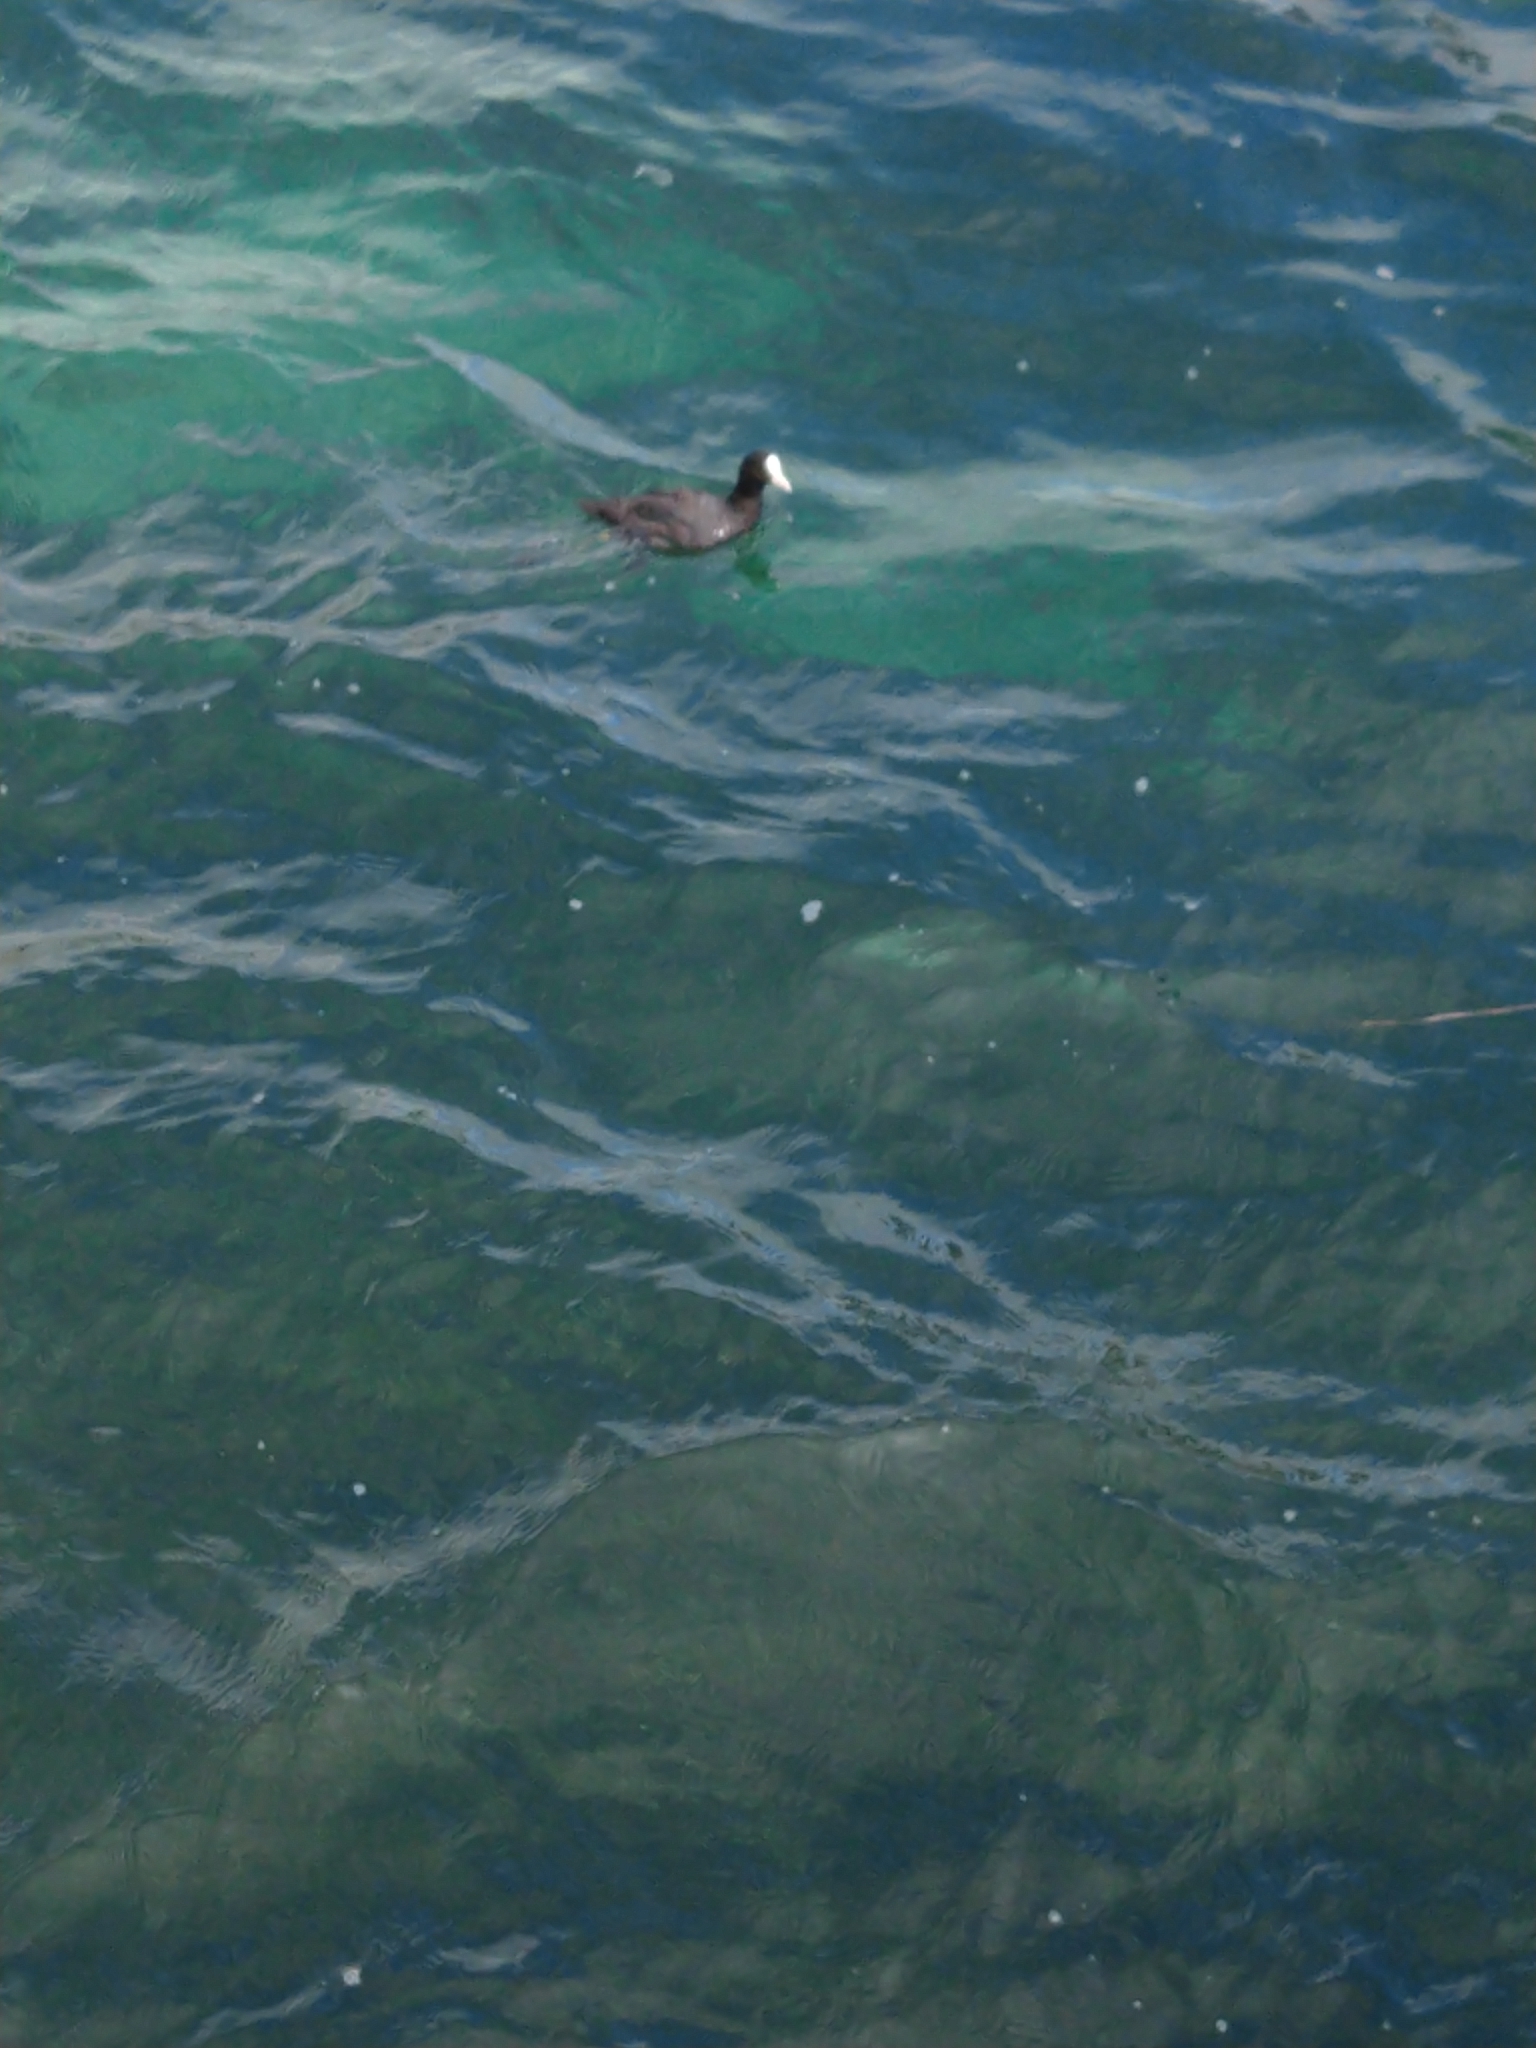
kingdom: Animalia
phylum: Chordata
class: Aves
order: Gruiformes
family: Rallidae
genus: Fulica
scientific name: Fulica atra
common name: Eurasian coot
